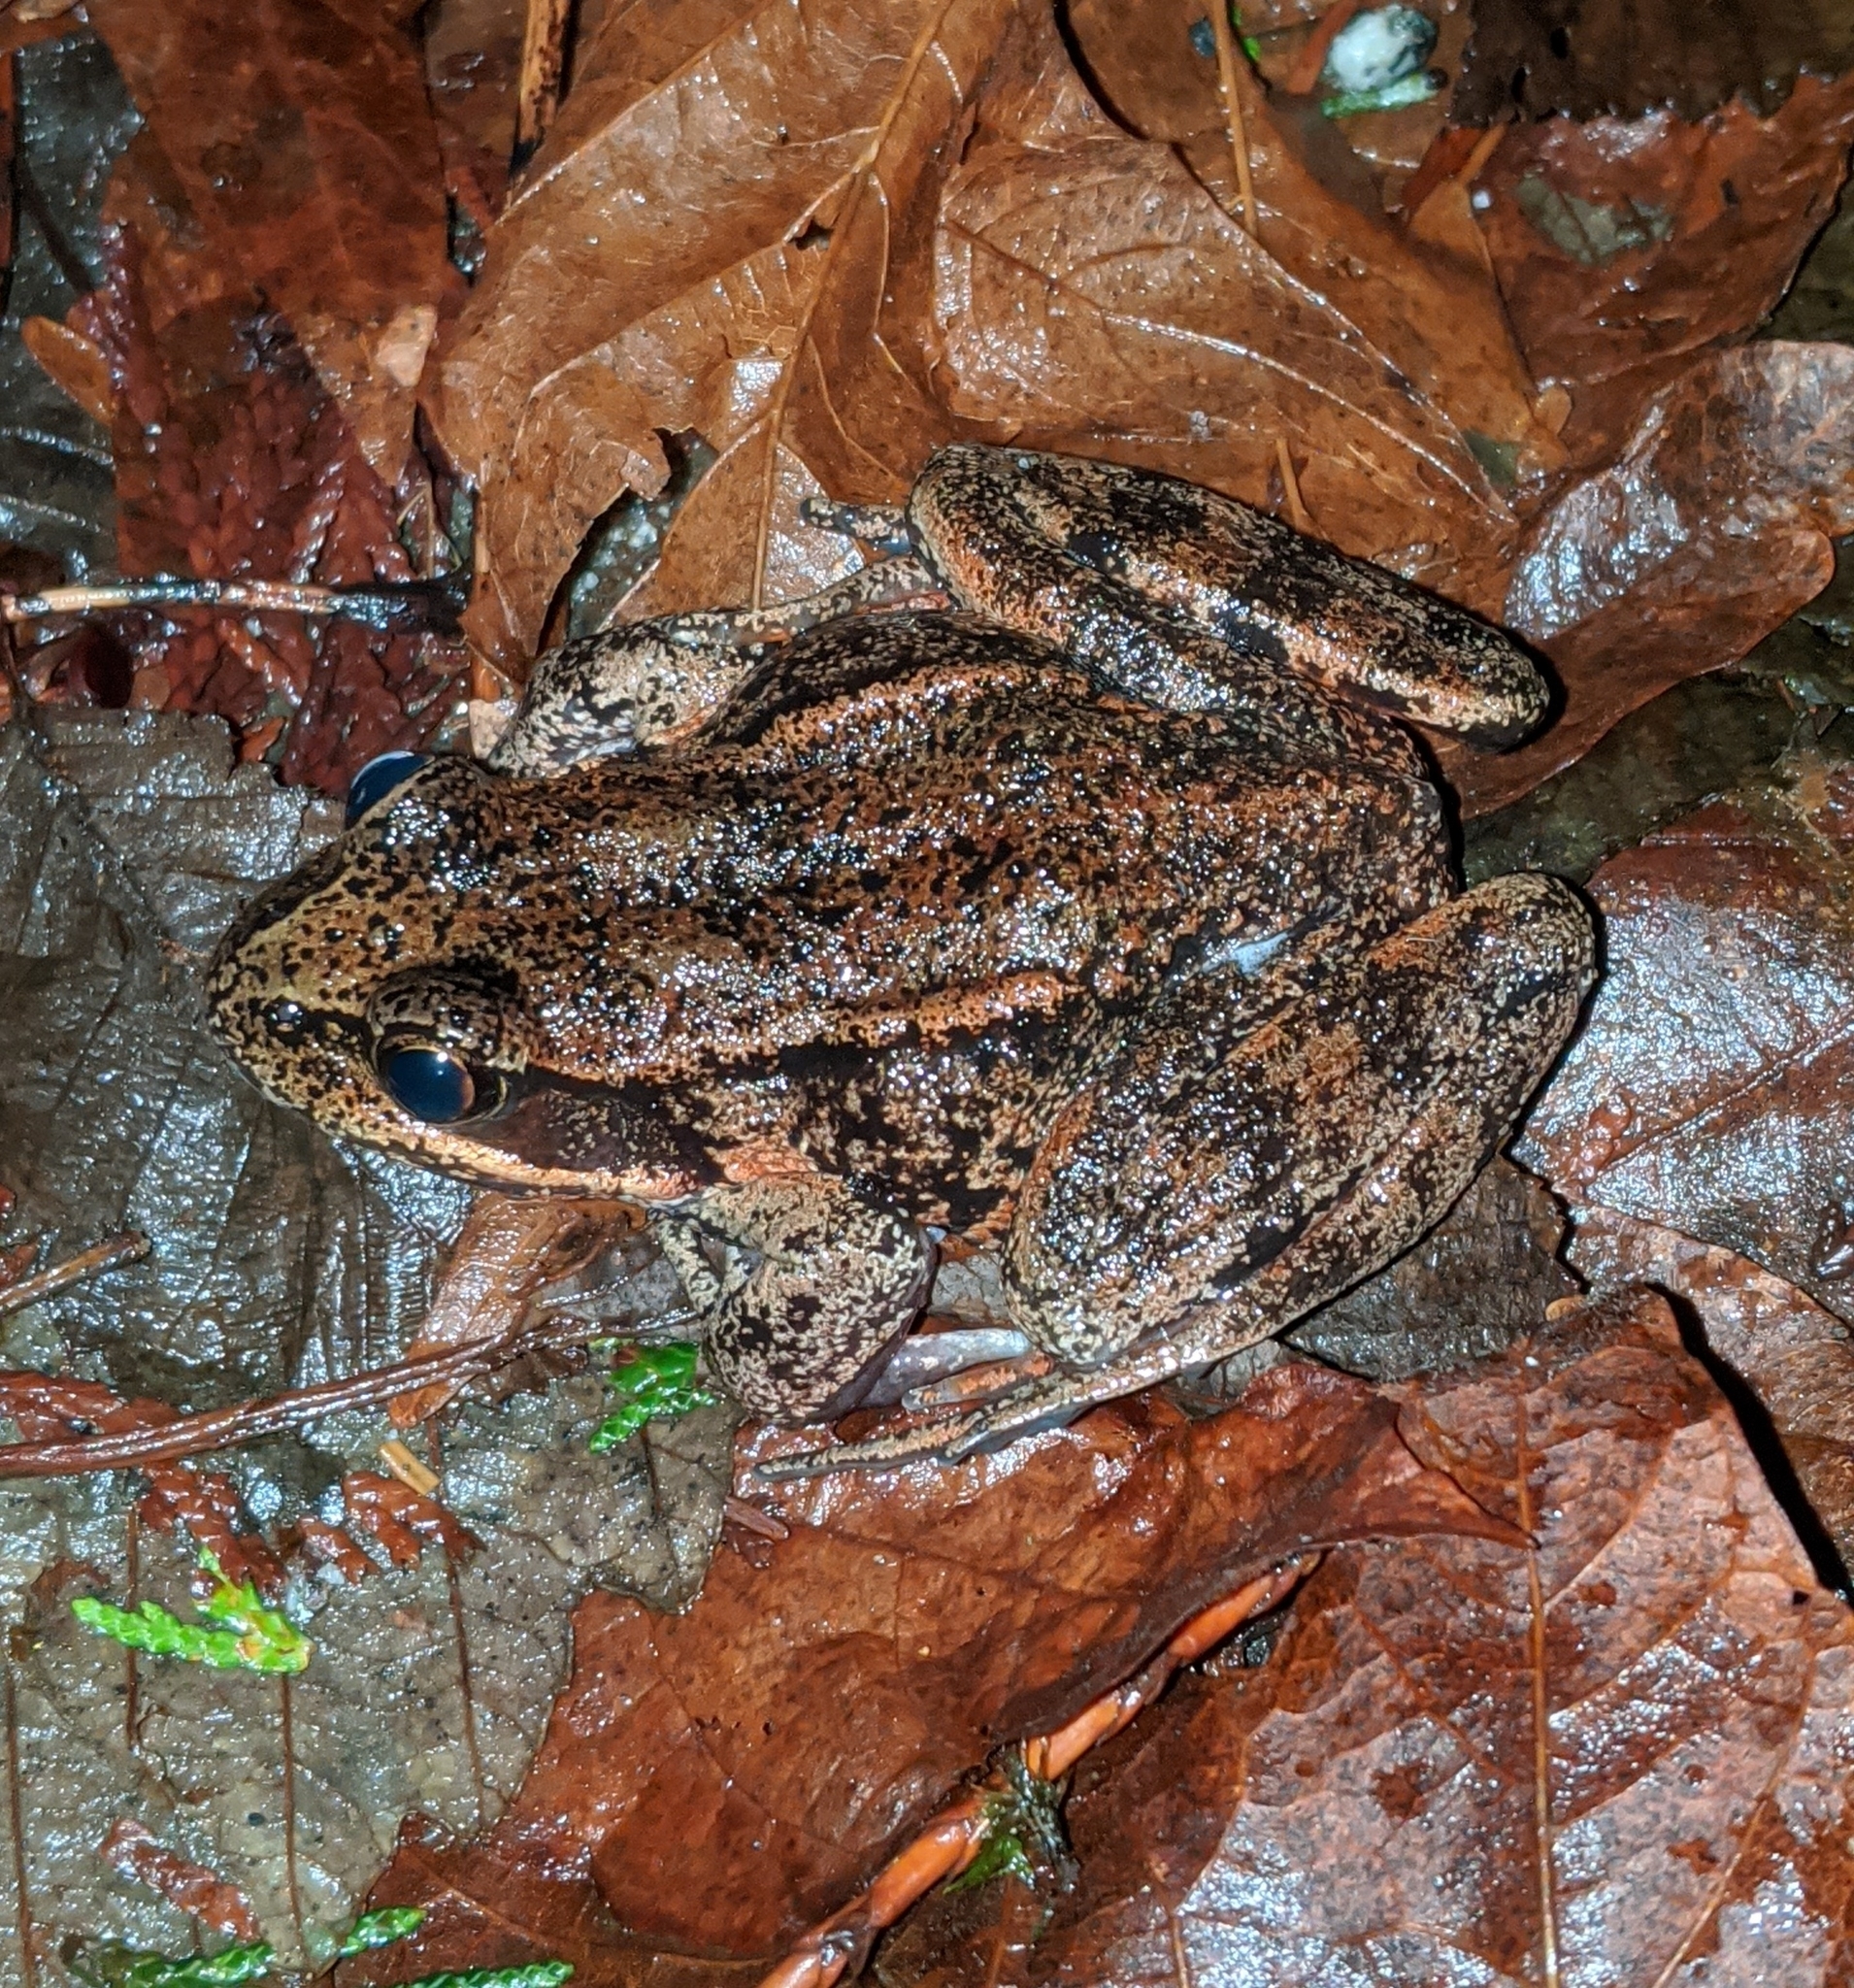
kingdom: Animalia
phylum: Chordata
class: Amphibia
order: Anura
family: Ranidae
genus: Rana
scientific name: Rana aurora
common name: Red-legged frog
